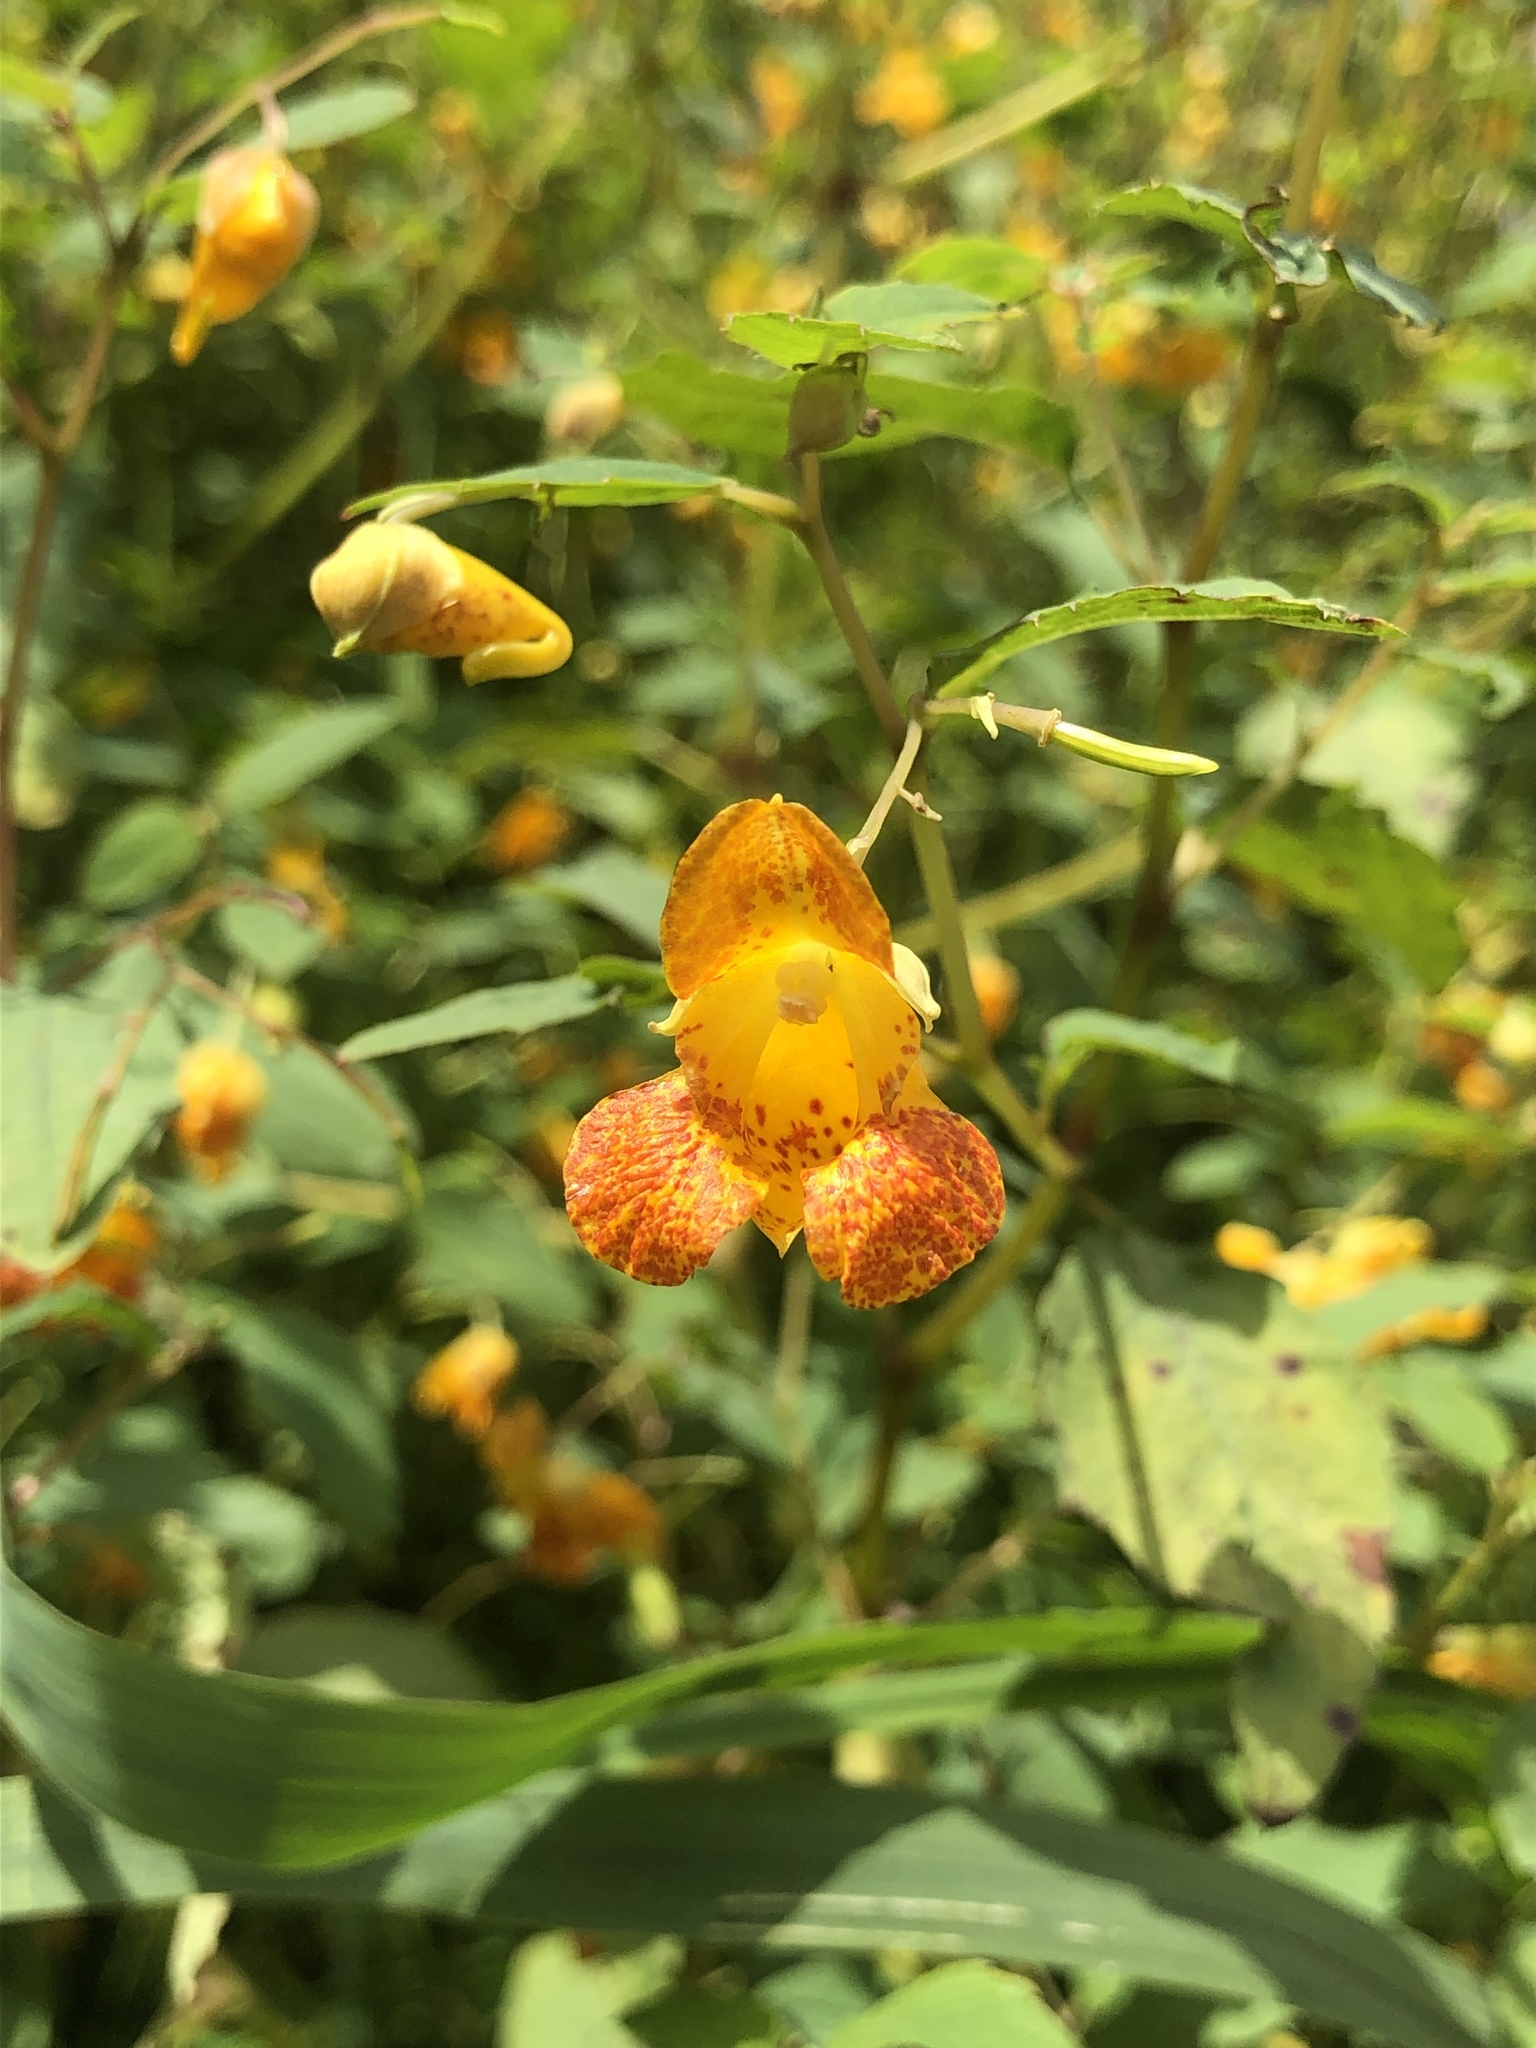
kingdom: Plantae
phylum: Tracheophyta
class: Magnoliopsida
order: Ericales
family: Balsaminaceae
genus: Impatiens
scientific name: Impatiens capensis
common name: Orange balsam
